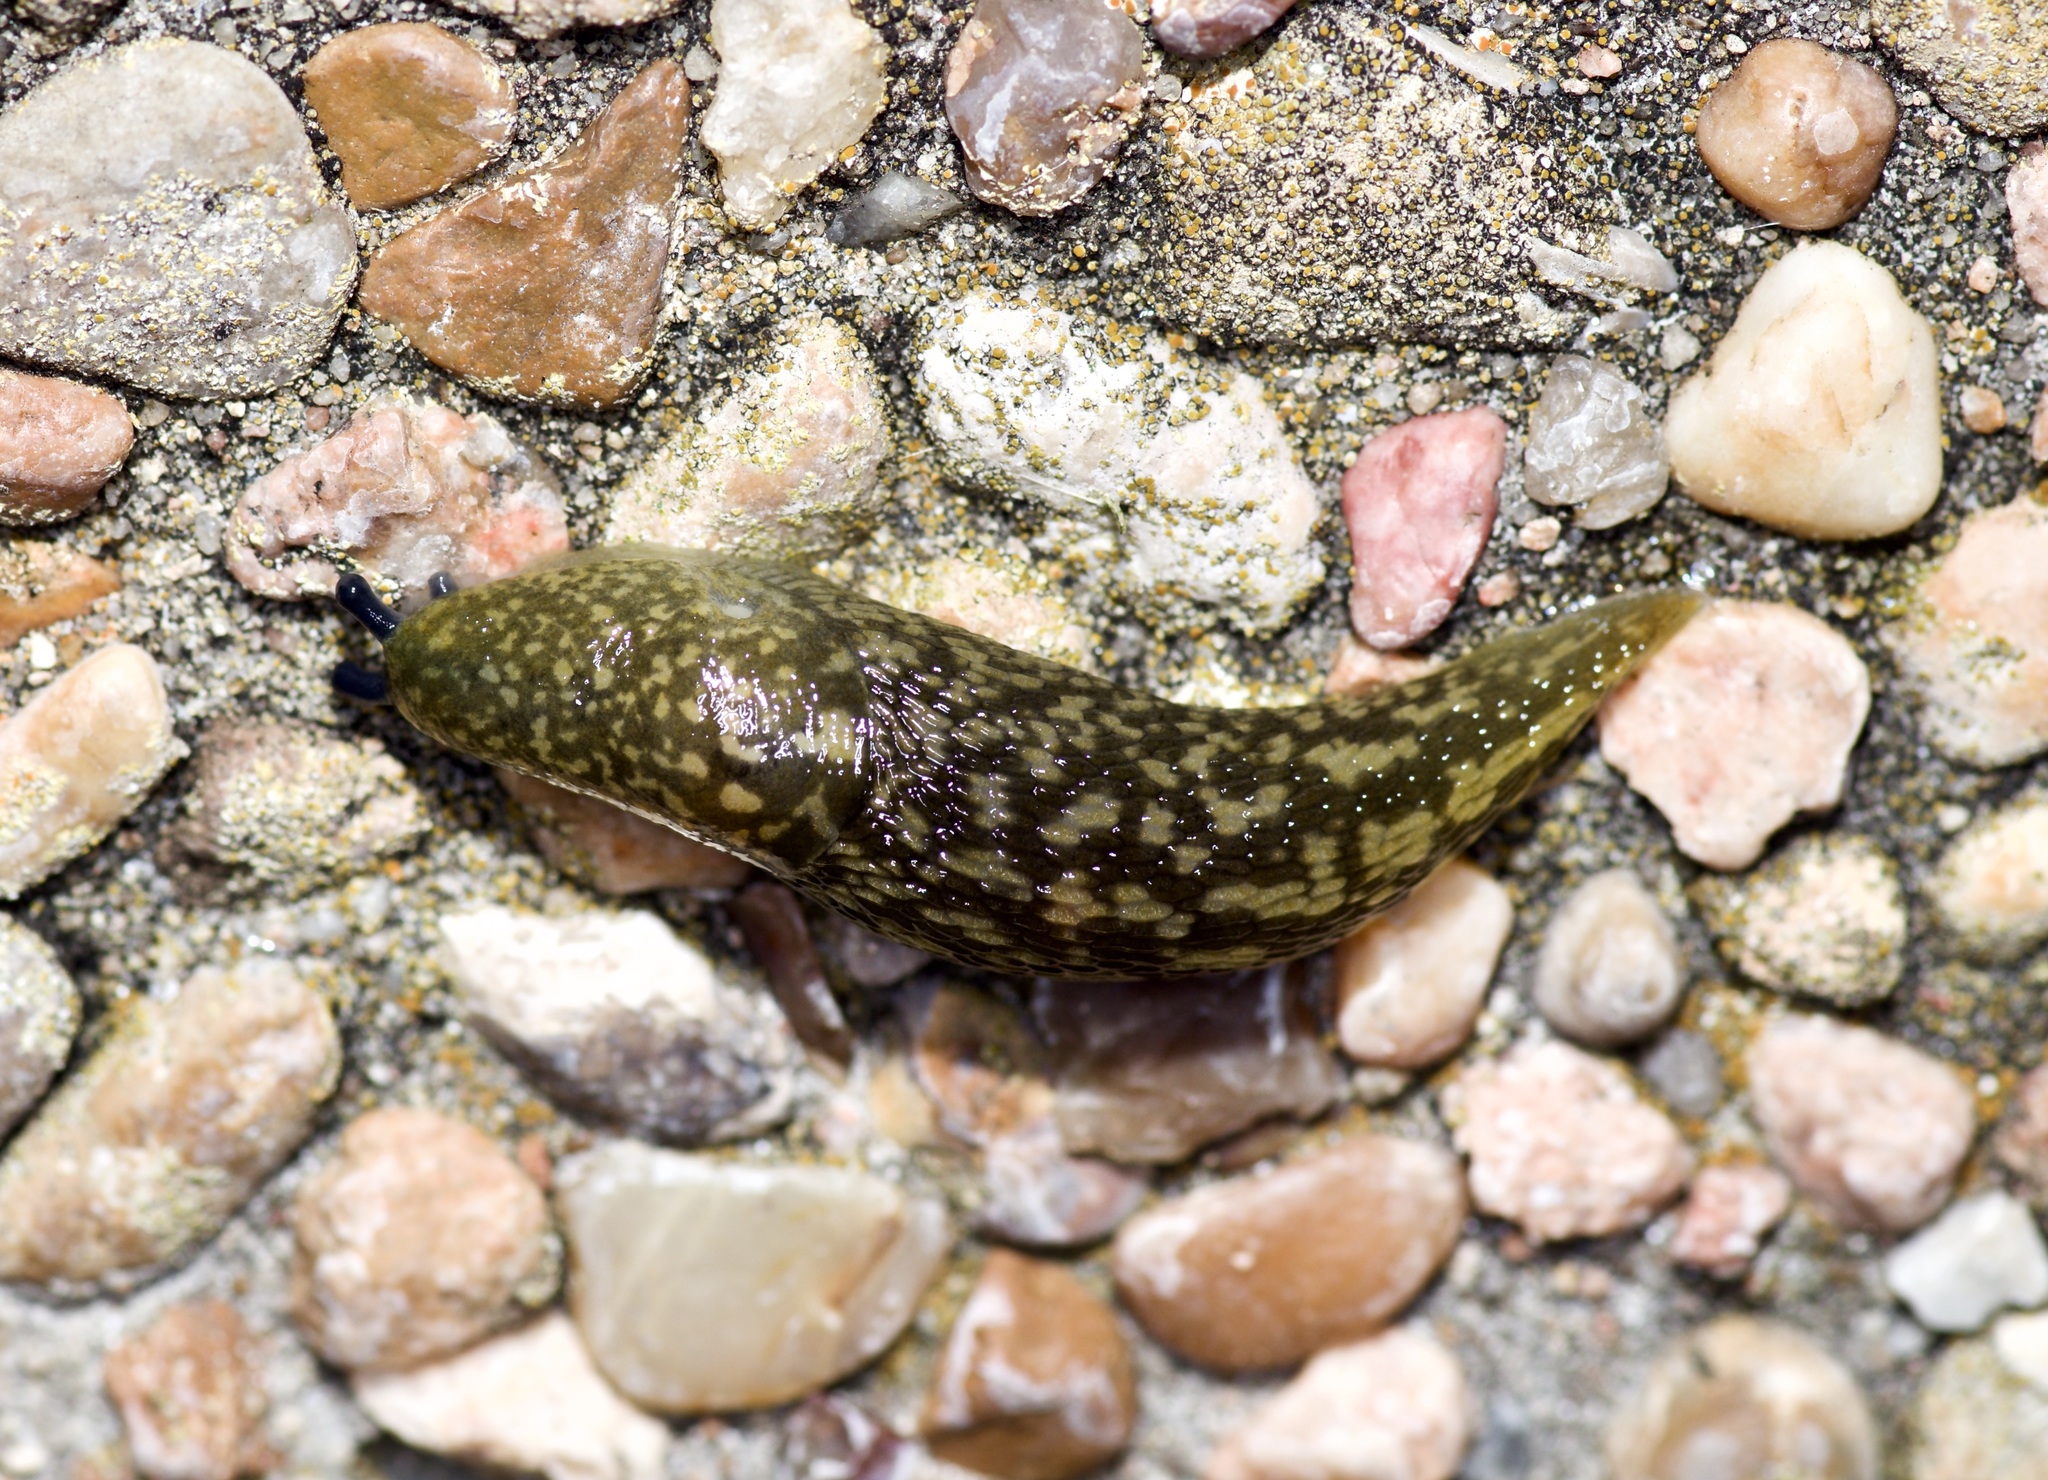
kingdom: Animalia
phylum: Mollusca
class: Gastropoda
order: Stylommatophora
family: Limacidae
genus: Limacus
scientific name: Limacus flavus
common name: Yellow gardenslug
